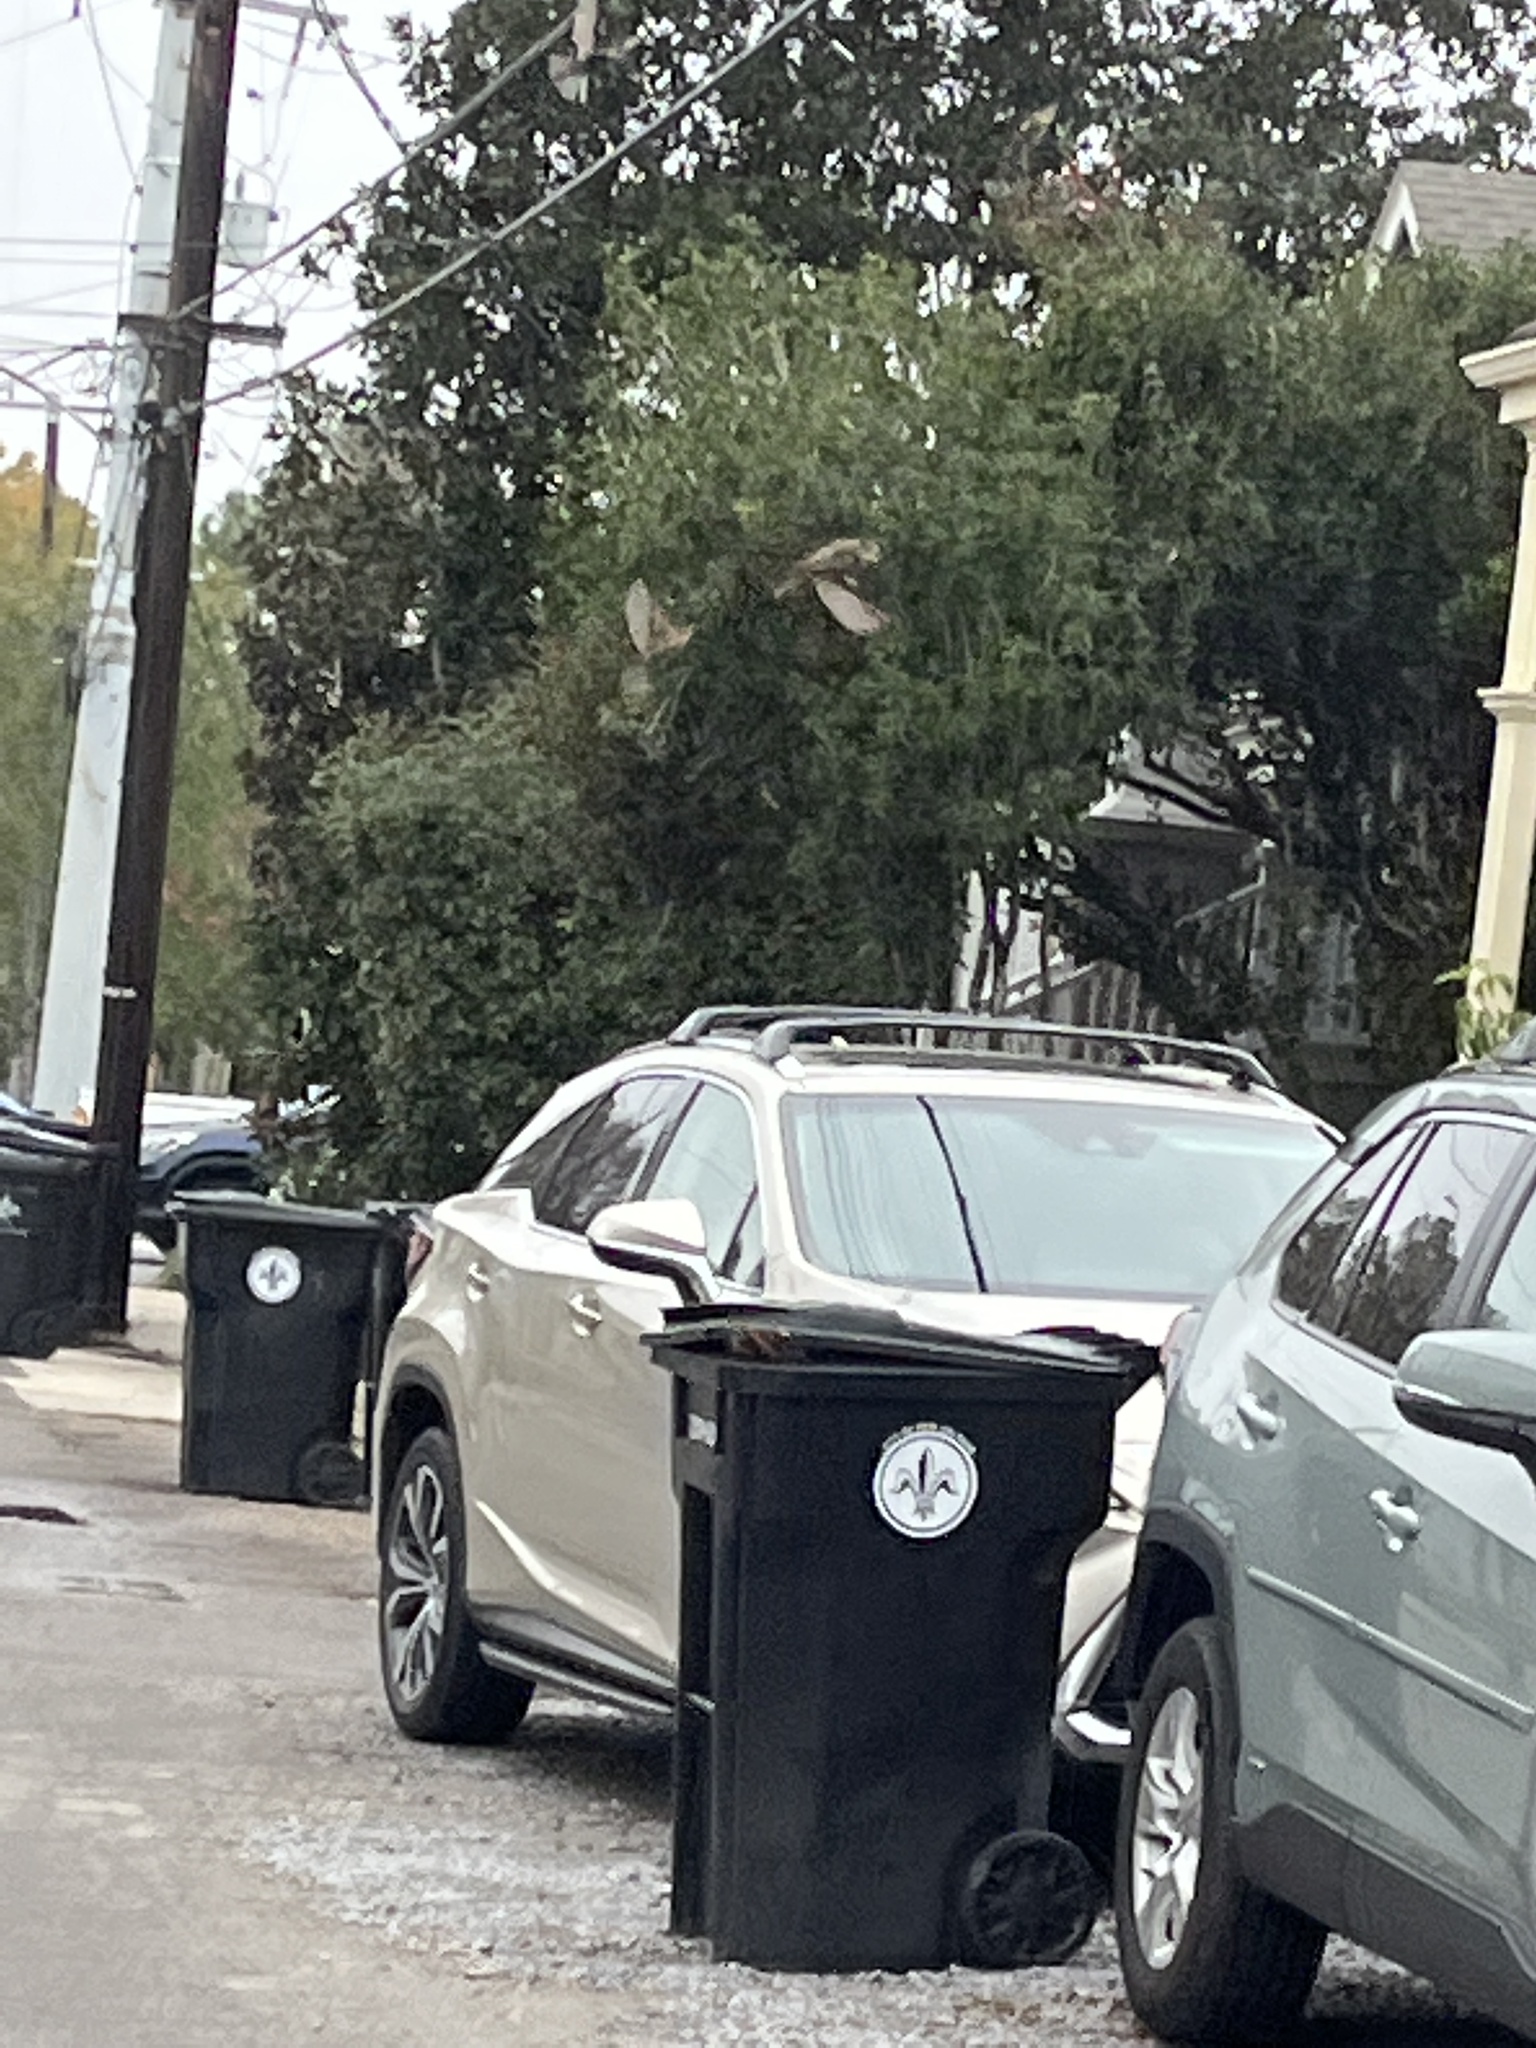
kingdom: Animalia
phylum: Chordata
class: Aves
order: Passeriformes
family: Passeridae
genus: Passer
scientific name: Passer domesticus
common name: House sparrow
